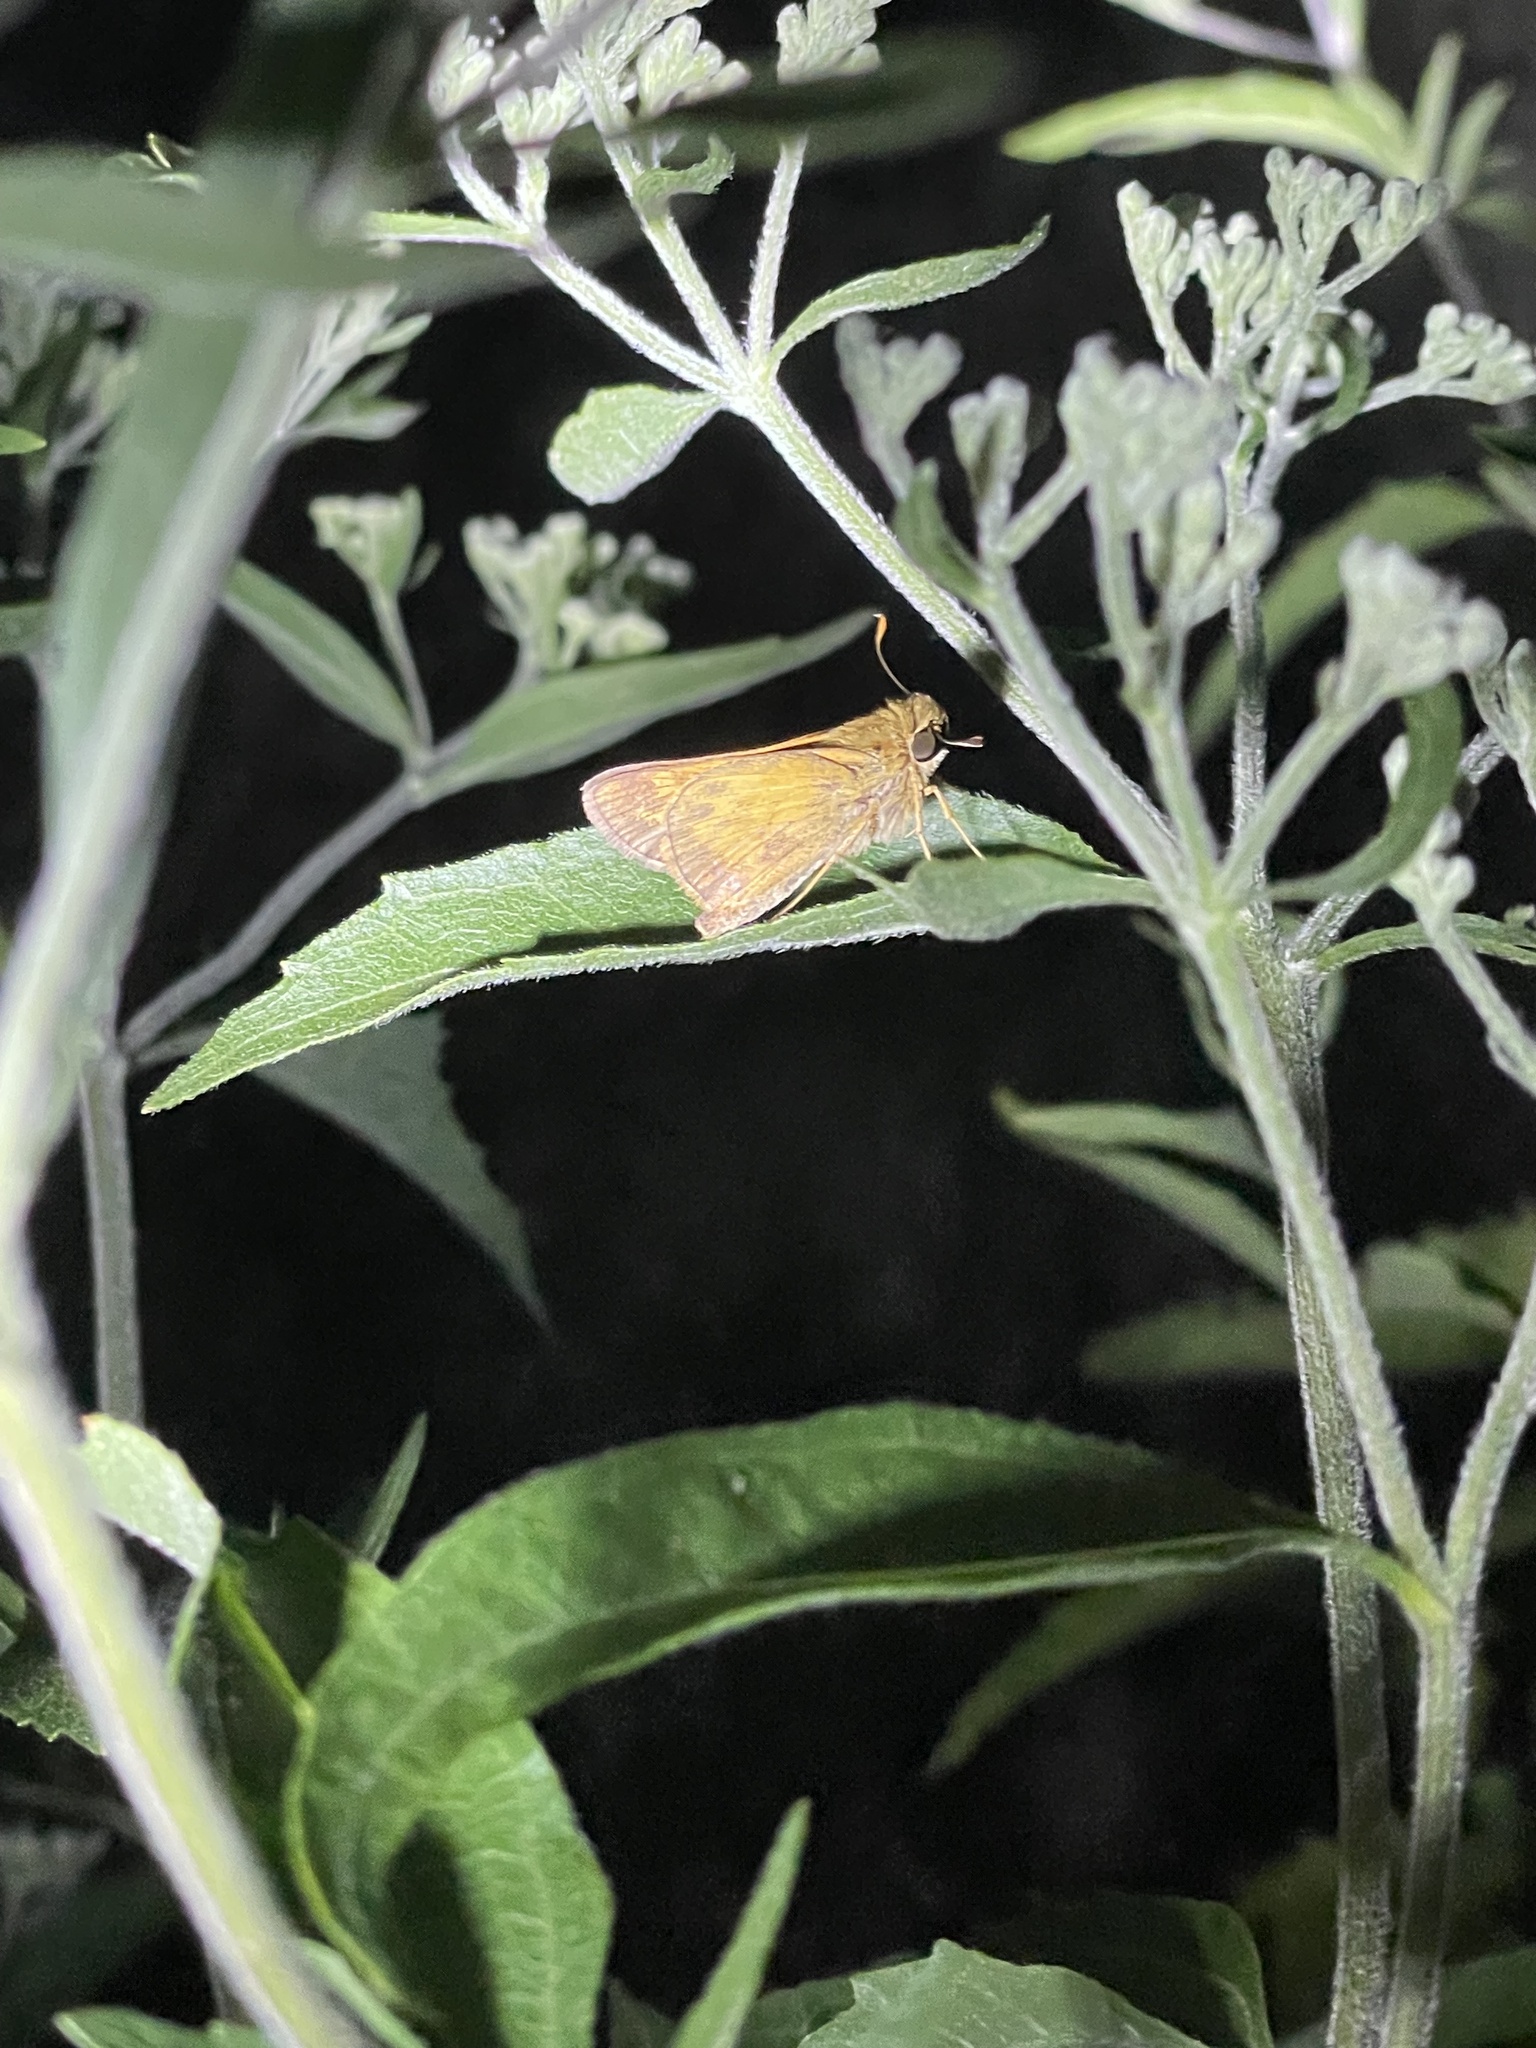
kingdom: Animalia
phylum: Arthropoda
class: Insecta
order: Lepidoptera
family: Hesperiidae
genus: Atalopedes
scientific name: Atalopedes
